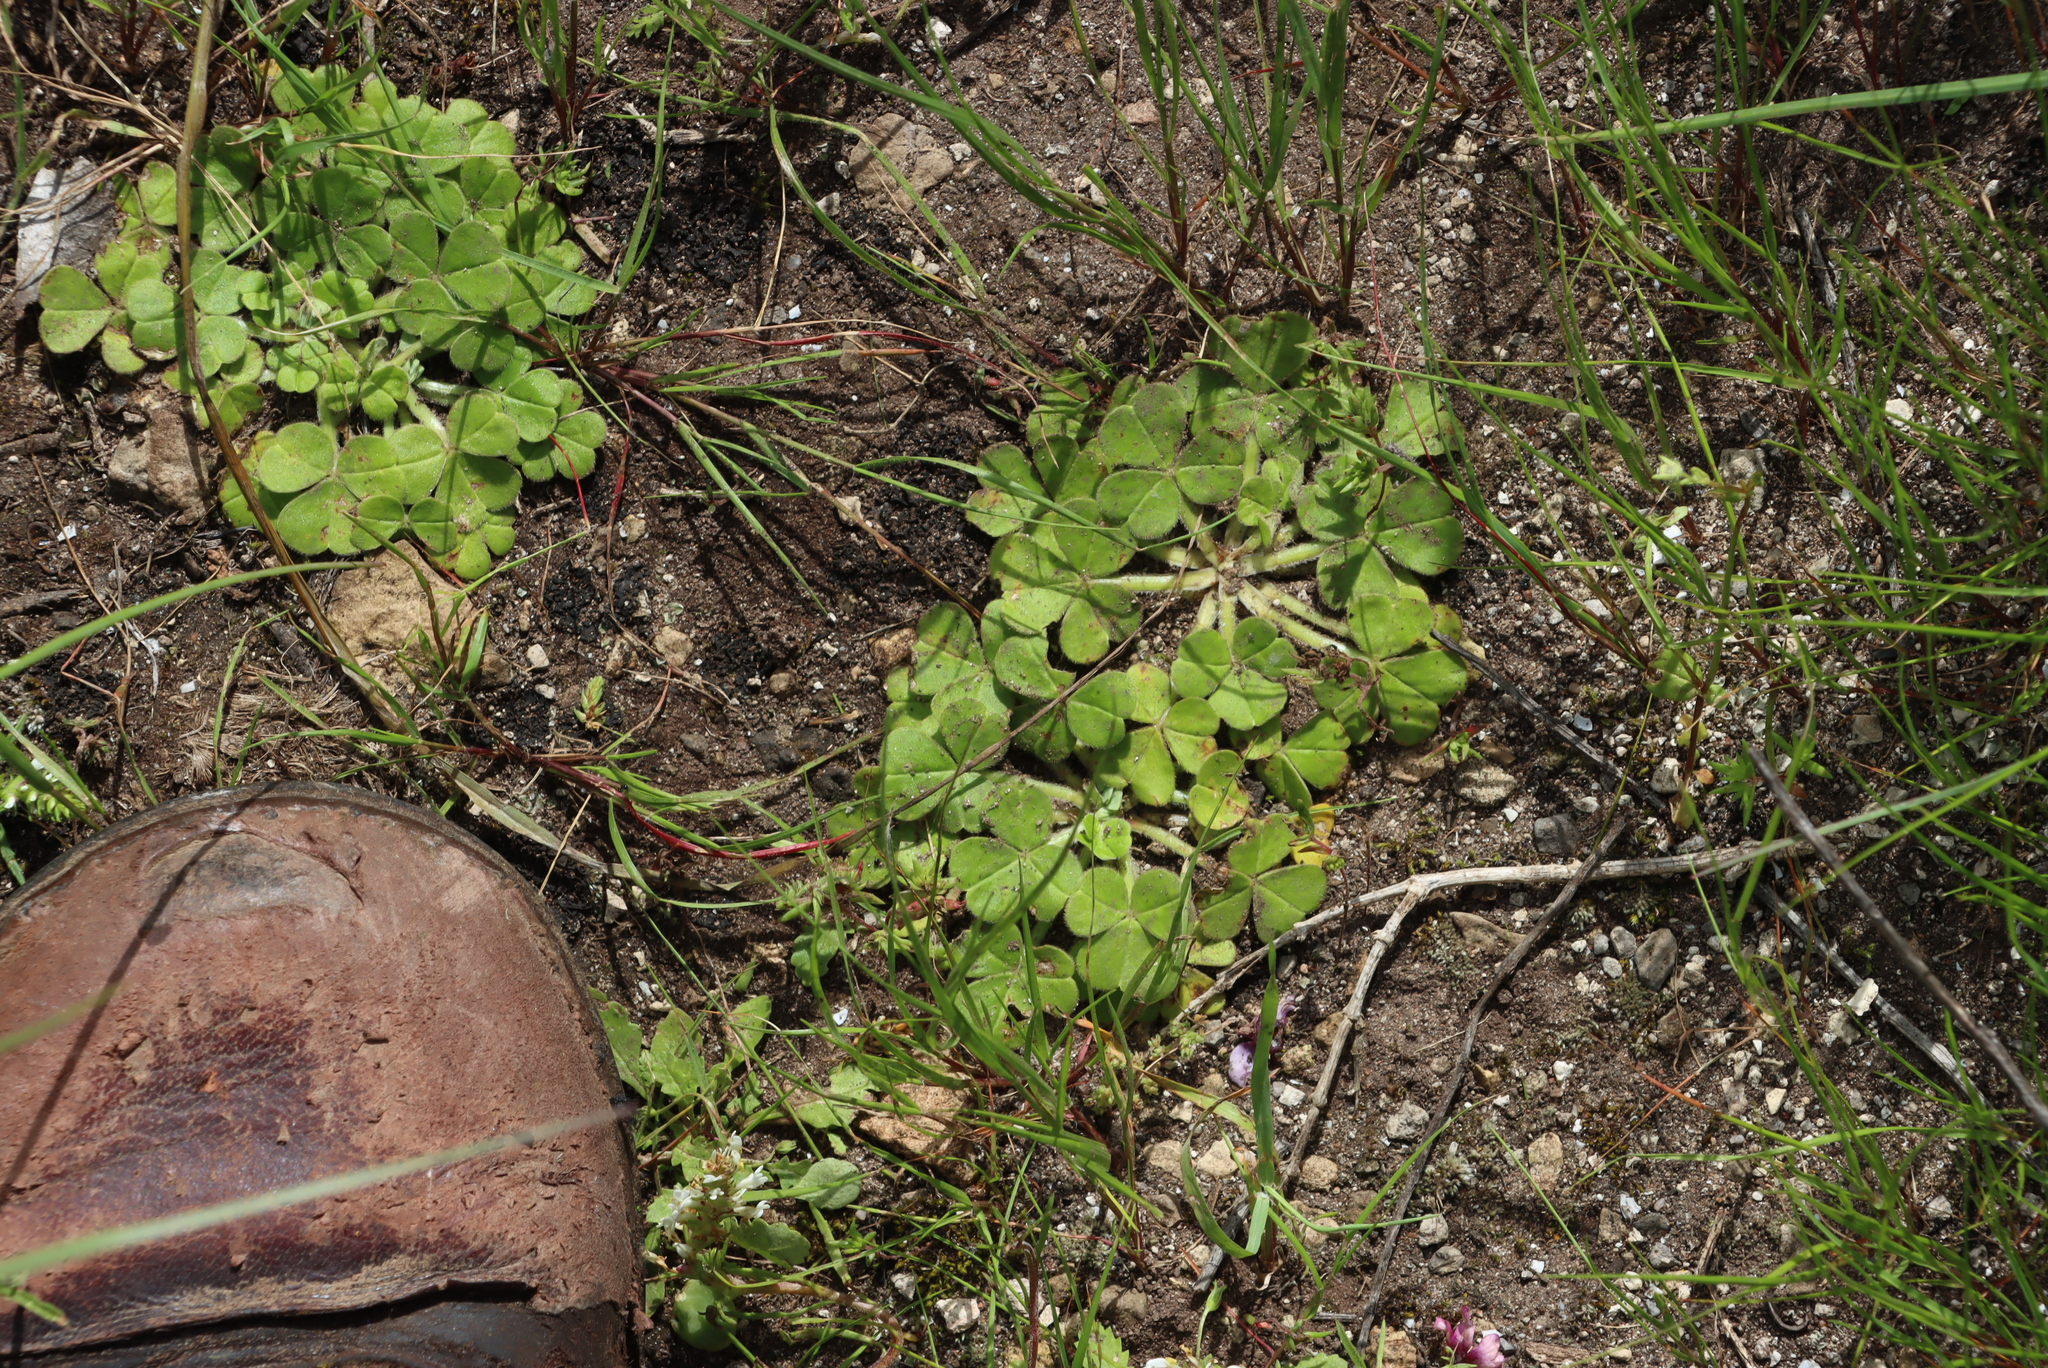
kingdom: Plantae
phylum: Tracheophyta
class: Magnoliopsida
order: Oxalidales
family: Oxalidaceae
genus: Oxalis
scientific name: Oxalis compressa
